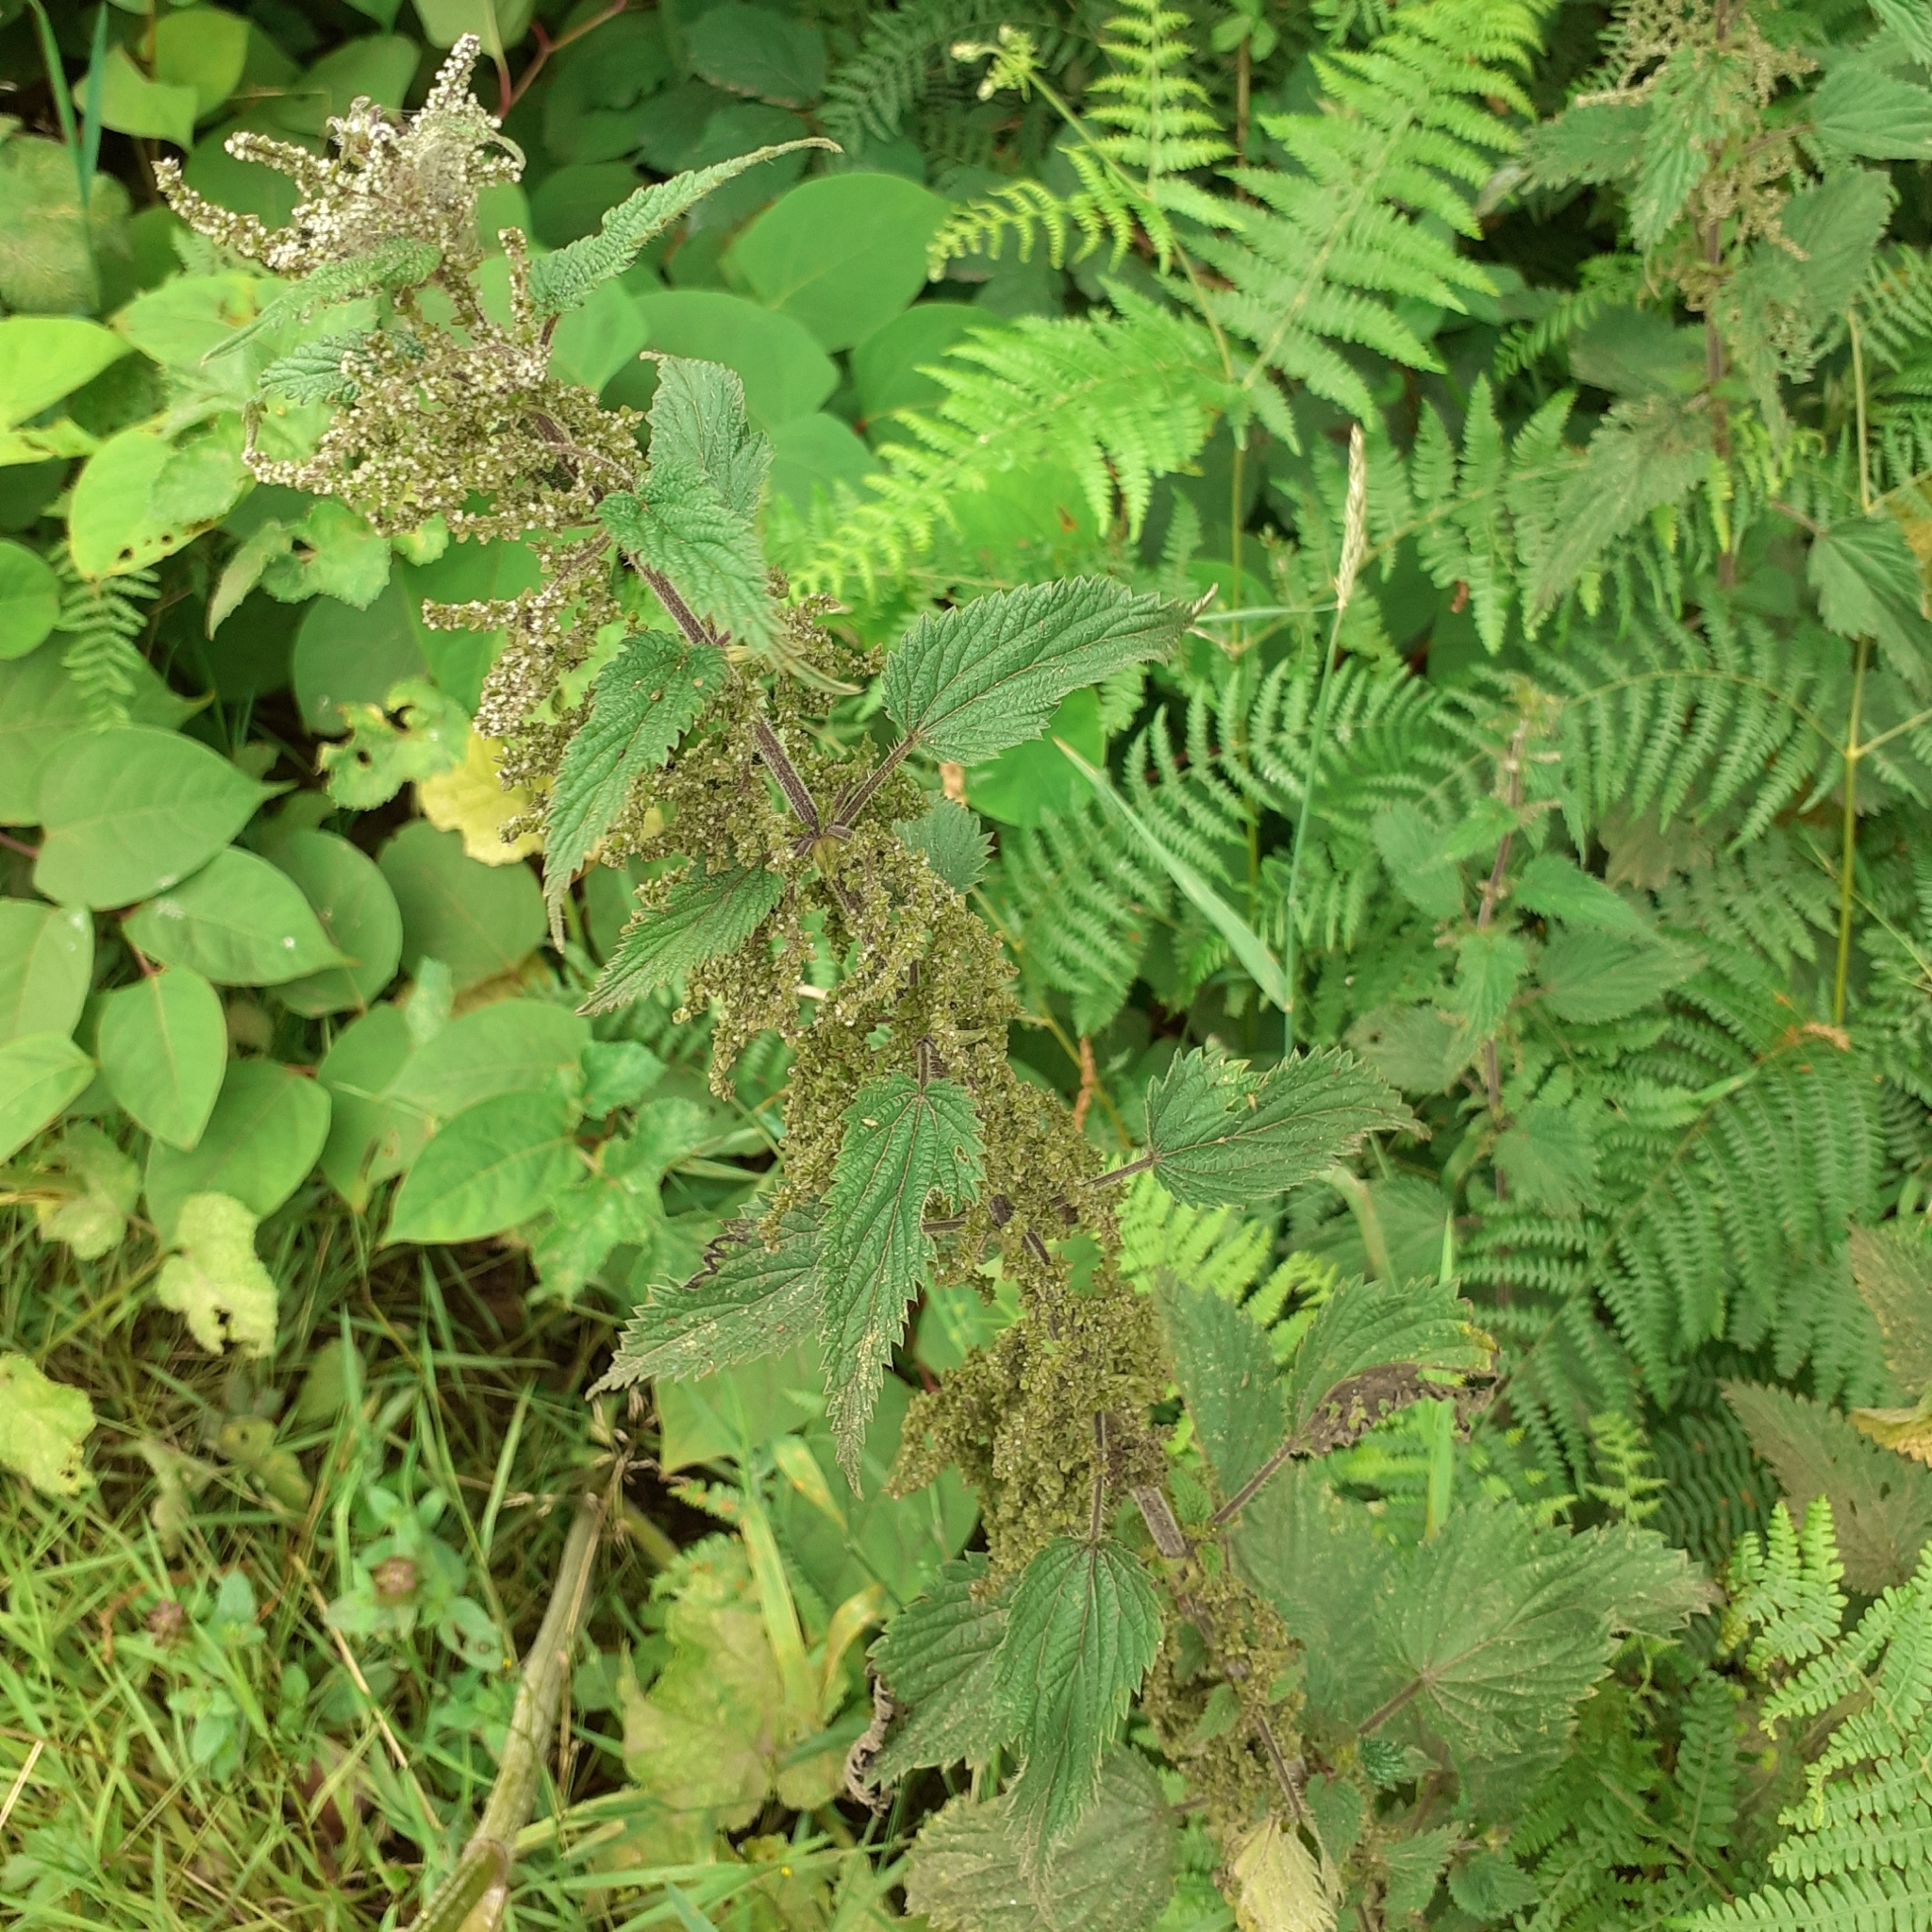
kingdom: Plantae
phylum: Tracheophyta
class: Magnoliopsida
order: Rosales
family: Urticaceae
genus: Urtica
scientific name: Urtica dioica
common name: Common nettle
